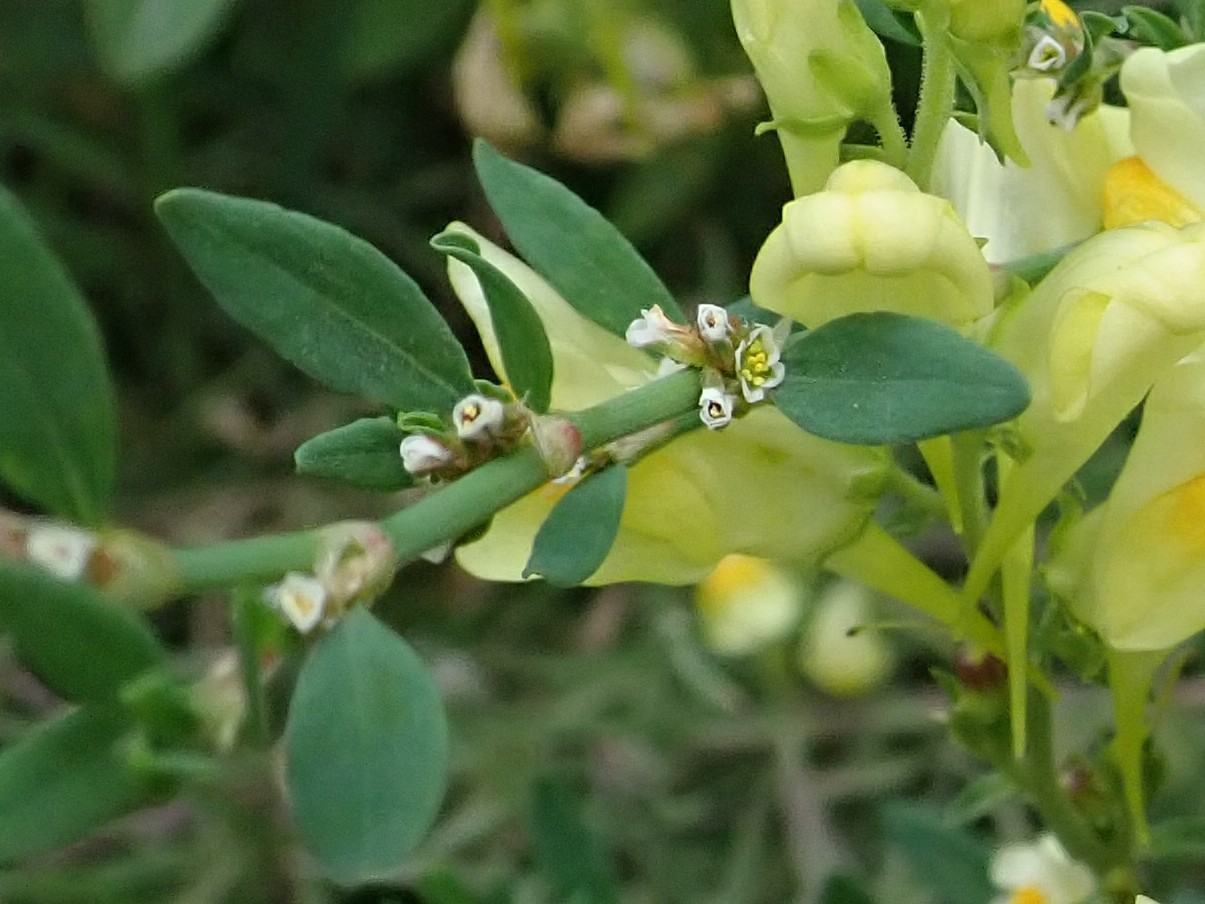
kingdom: Plantae
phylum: Tracheophyta
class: Magnoliopsida
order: Caryophyllales
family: Polygonaceae
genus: Polygonum
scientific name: Polygonum aviculare
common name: Prostrate knotweed
